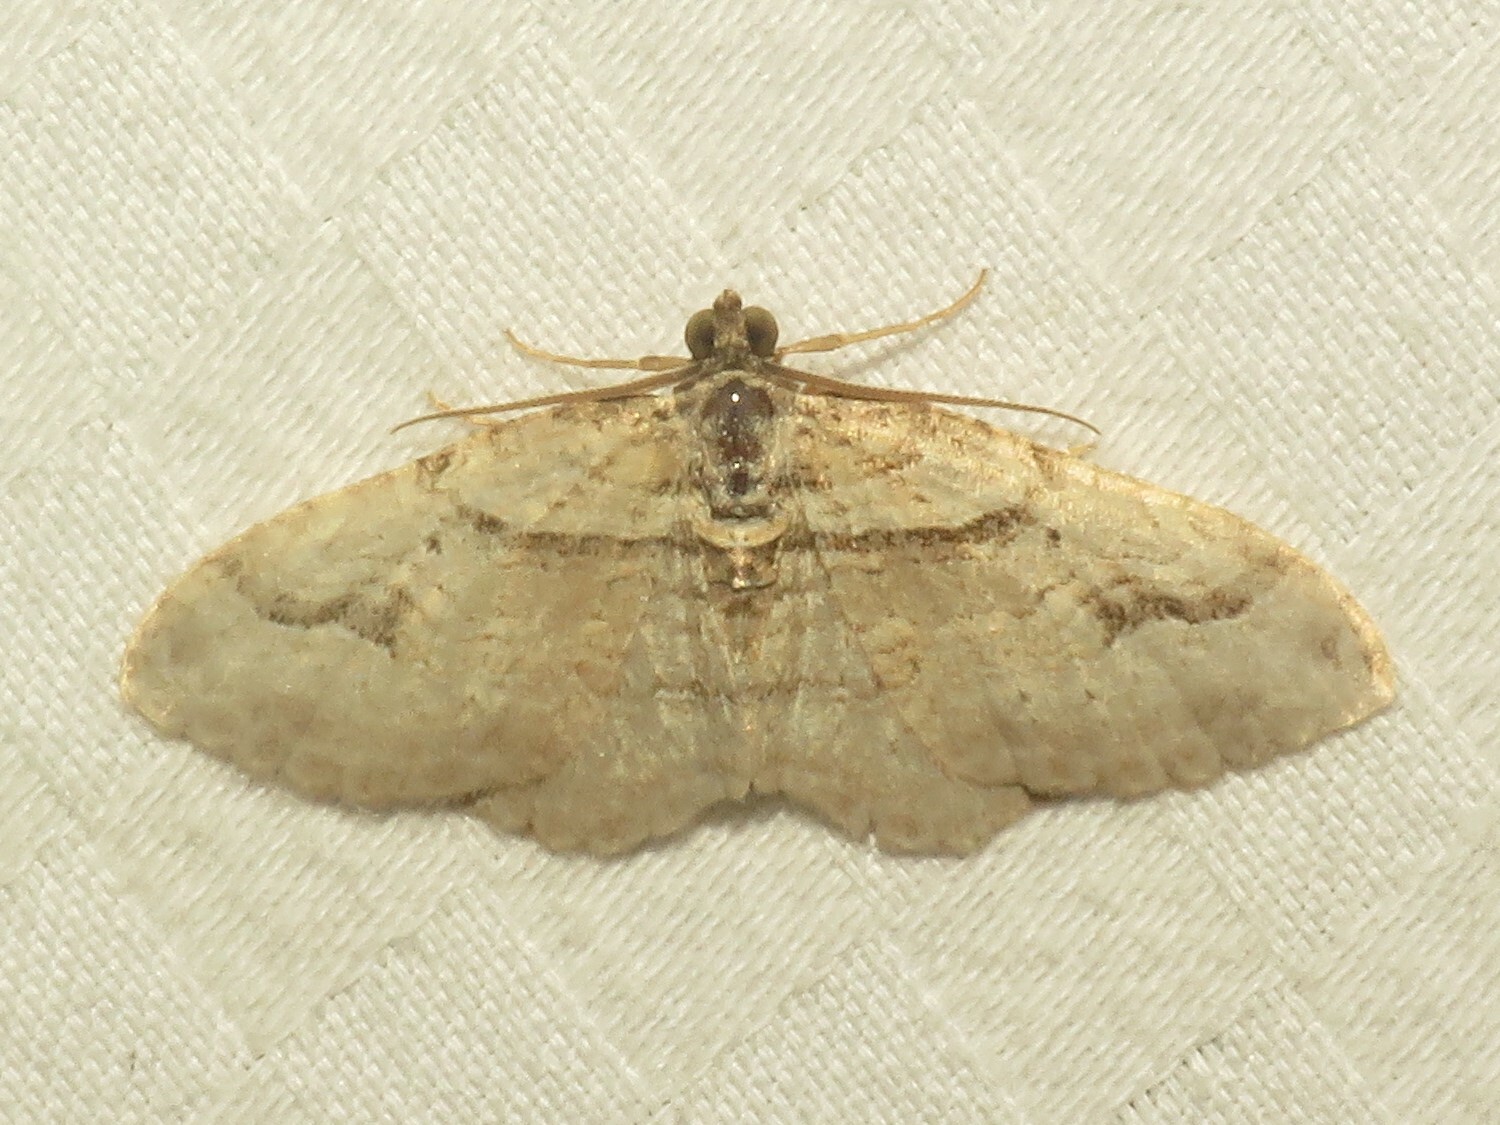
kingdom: Animalia
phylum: Arthropoda
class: Insecta
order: Lepidoptera
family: Geometridae
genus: Costaconvexa
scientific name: Costaconvexa centrostrigaria
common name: Bent-line carpet
